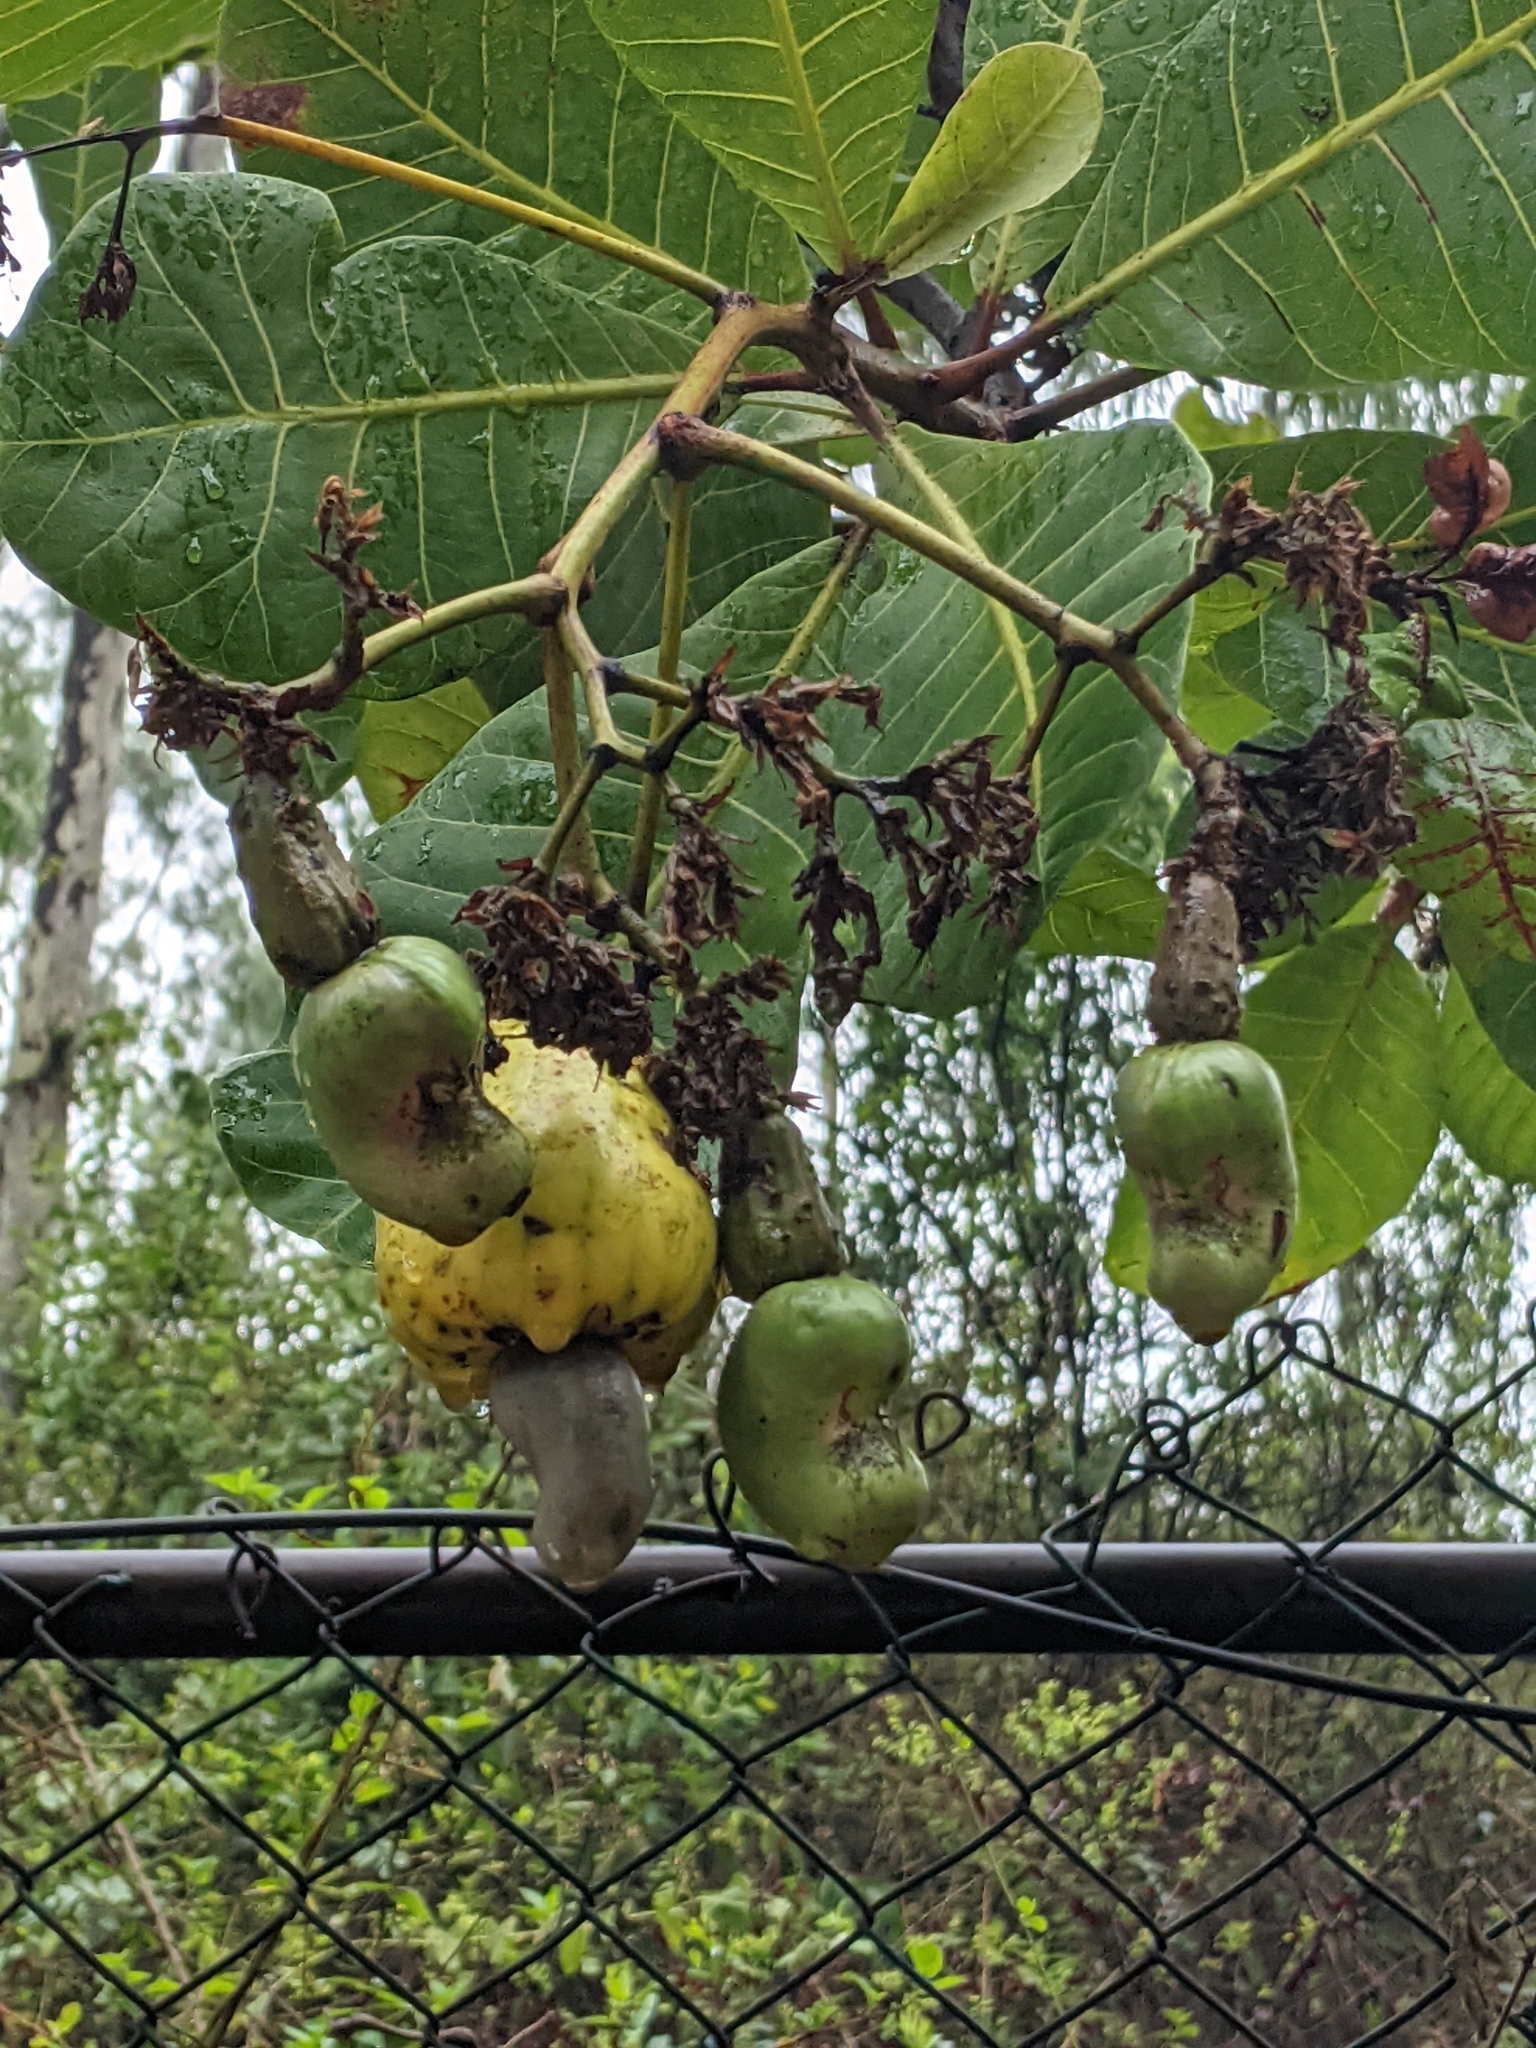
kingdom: Plantae
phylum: Tracheophyta
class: Magnoliopsida
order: Sapindales
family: Anacardiaceae
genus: Anacardium
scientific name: Anacardium occidentale
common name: Cashew
